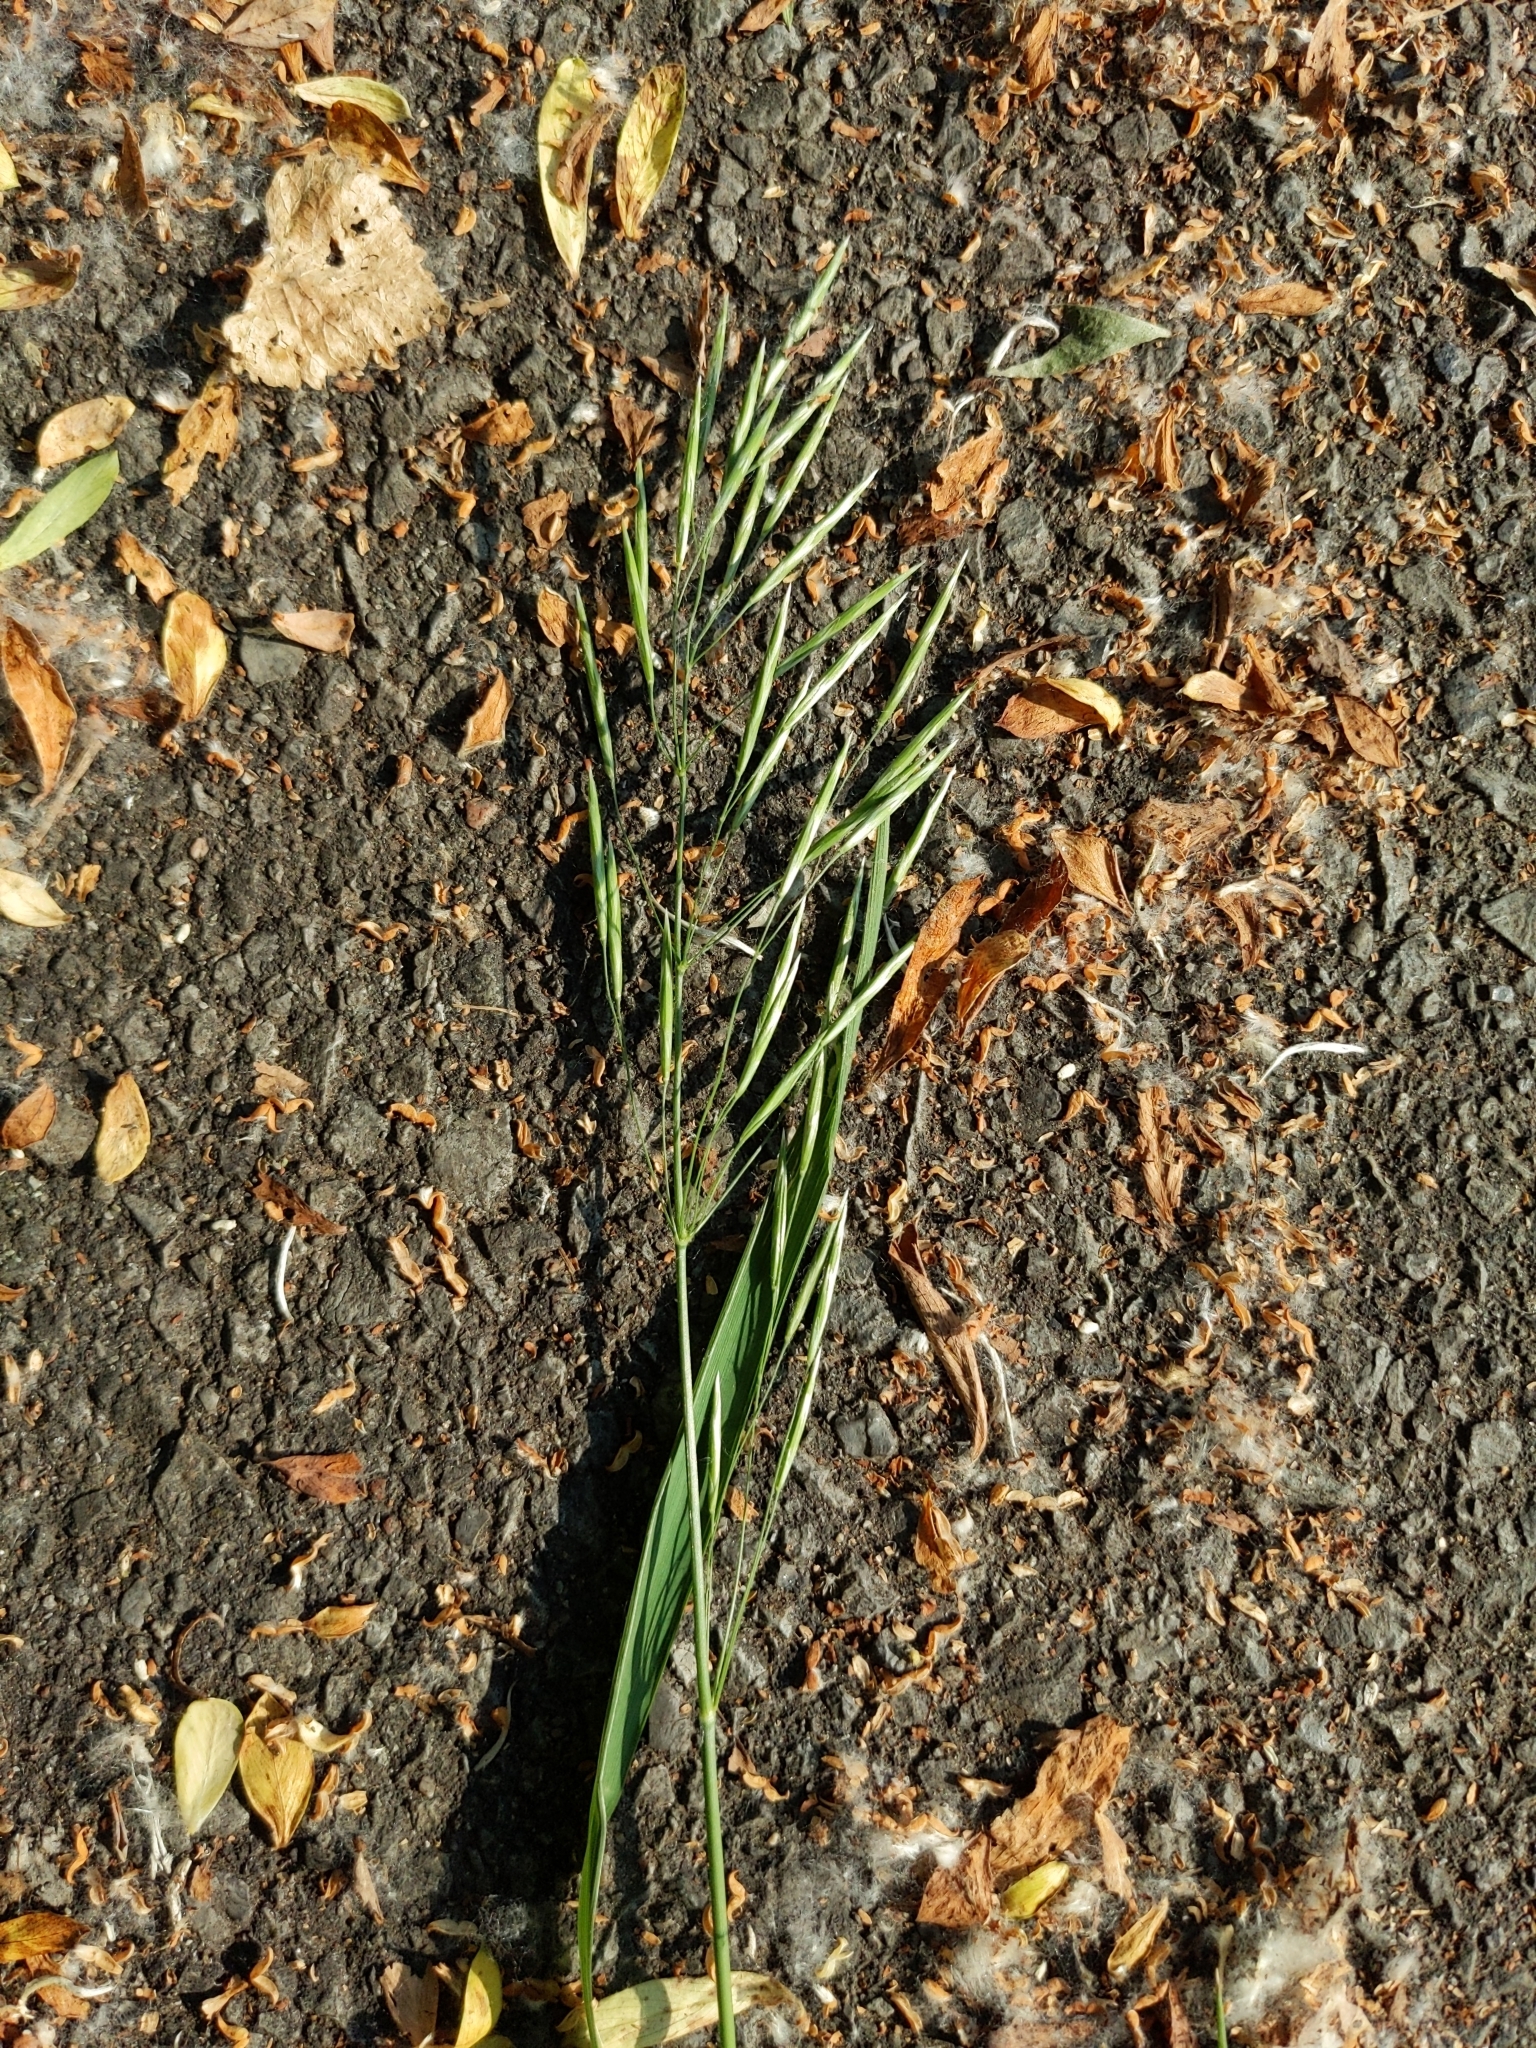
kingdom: Plantae
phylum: Tracheophyta
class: Liliopsida
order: Poales
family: Poaceae
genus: Bromus
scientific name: Bromus inermis
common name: Smooth brome
